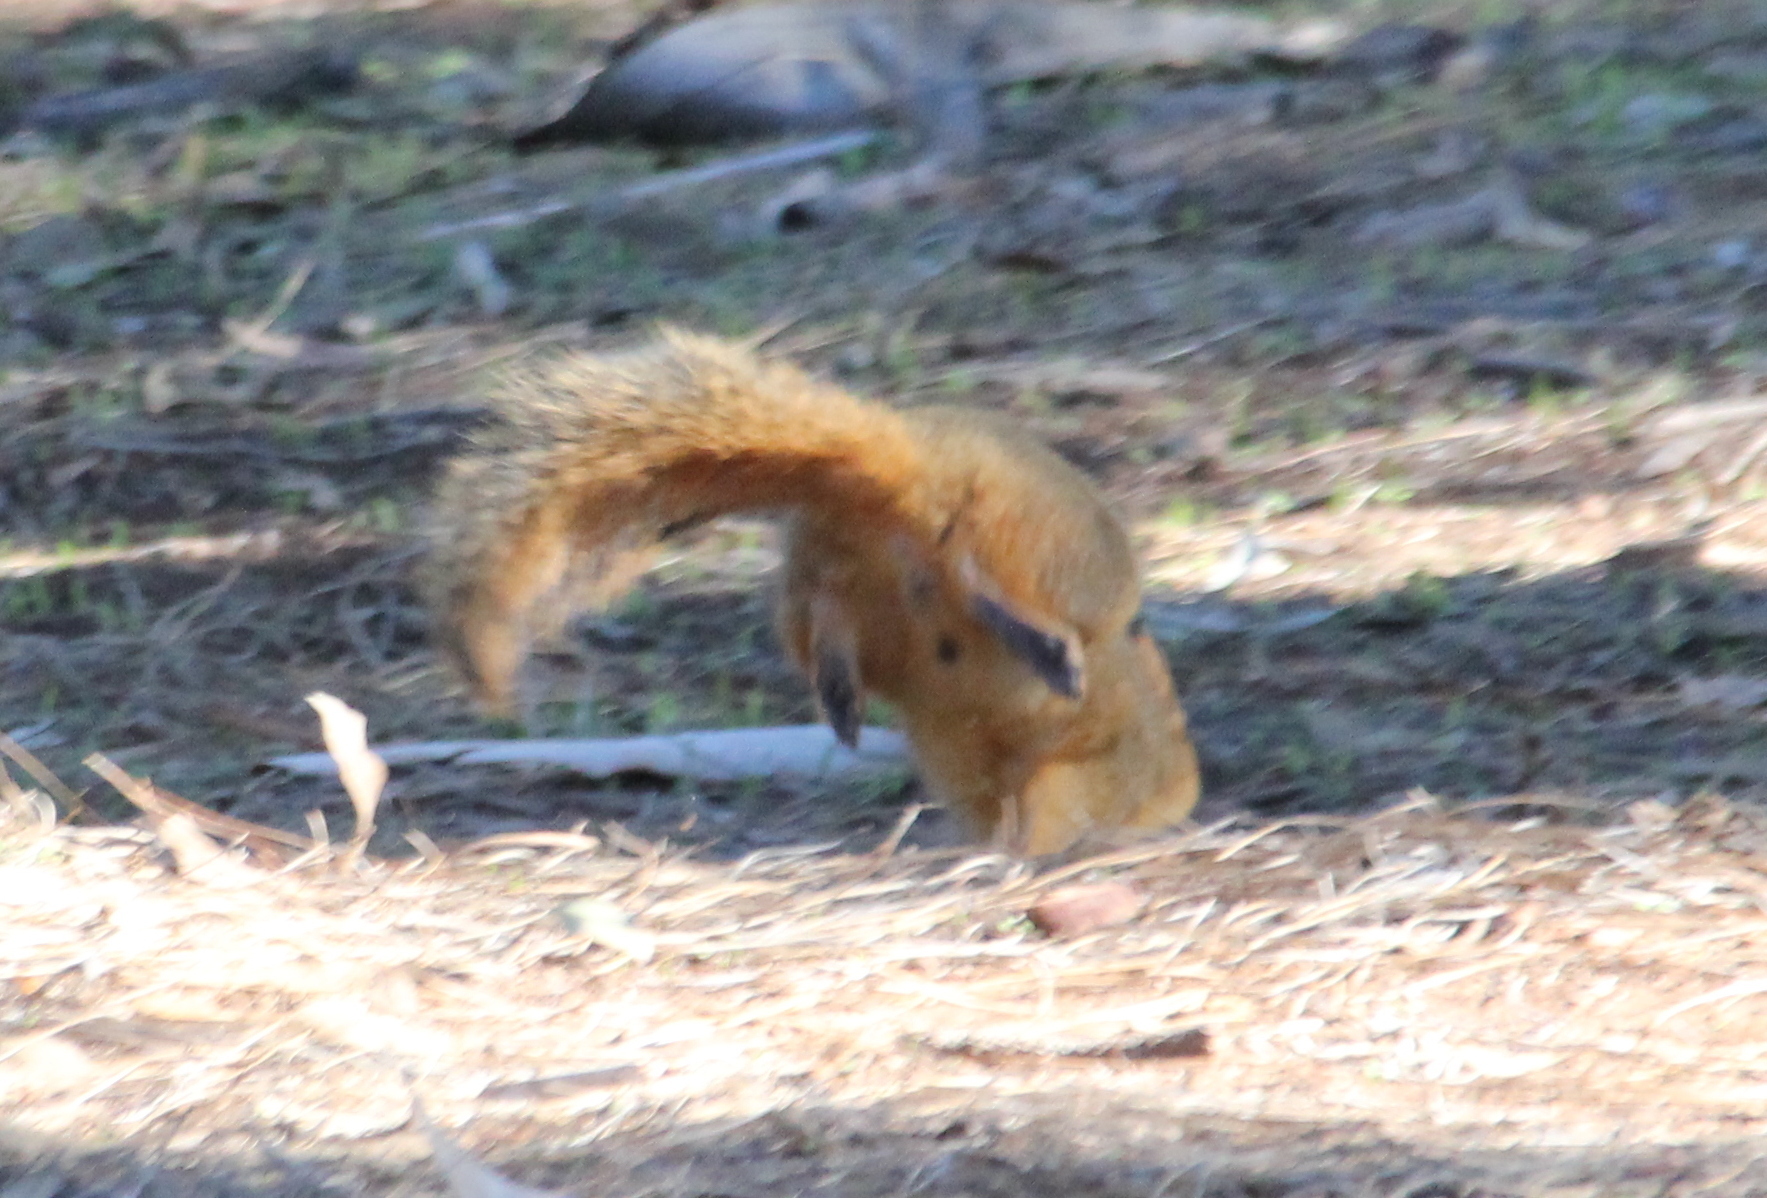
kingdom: Animalia
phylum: Chordata
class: Mammalia
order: Rodentia
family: Sciuridae
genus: Sciurus
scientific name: Sciurus niger
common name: Fox squirrel
